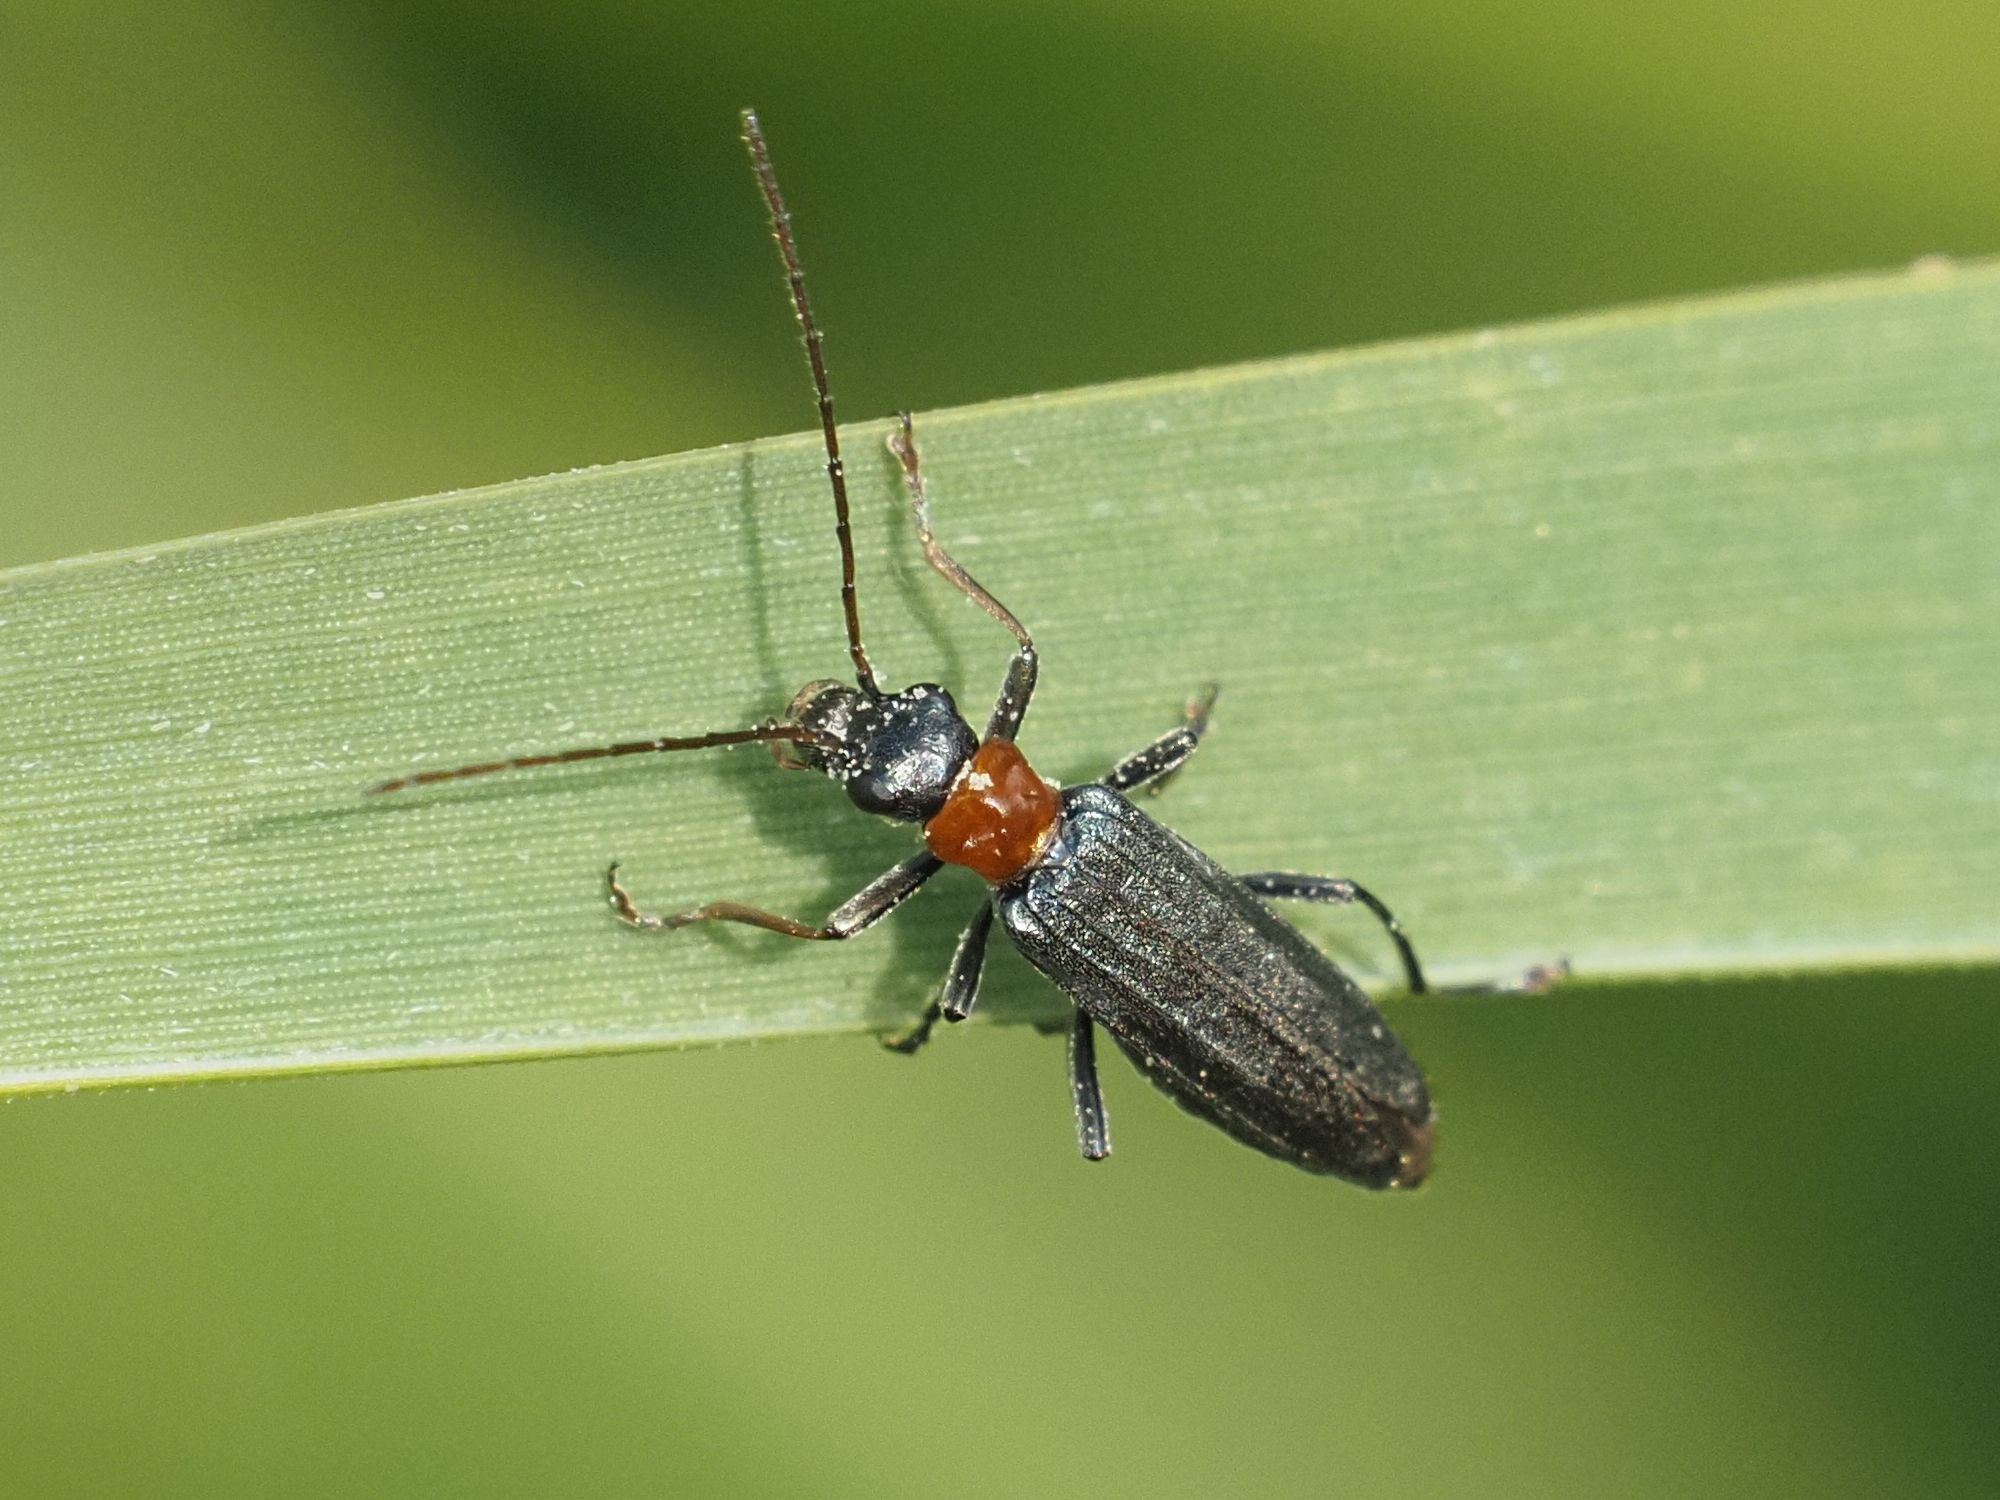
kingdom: Animalia
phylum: Arthropoda
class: Insecta
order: Coleoptera
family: Oedemeridae
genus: Oedemera
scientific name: Oedemera croceicollis
